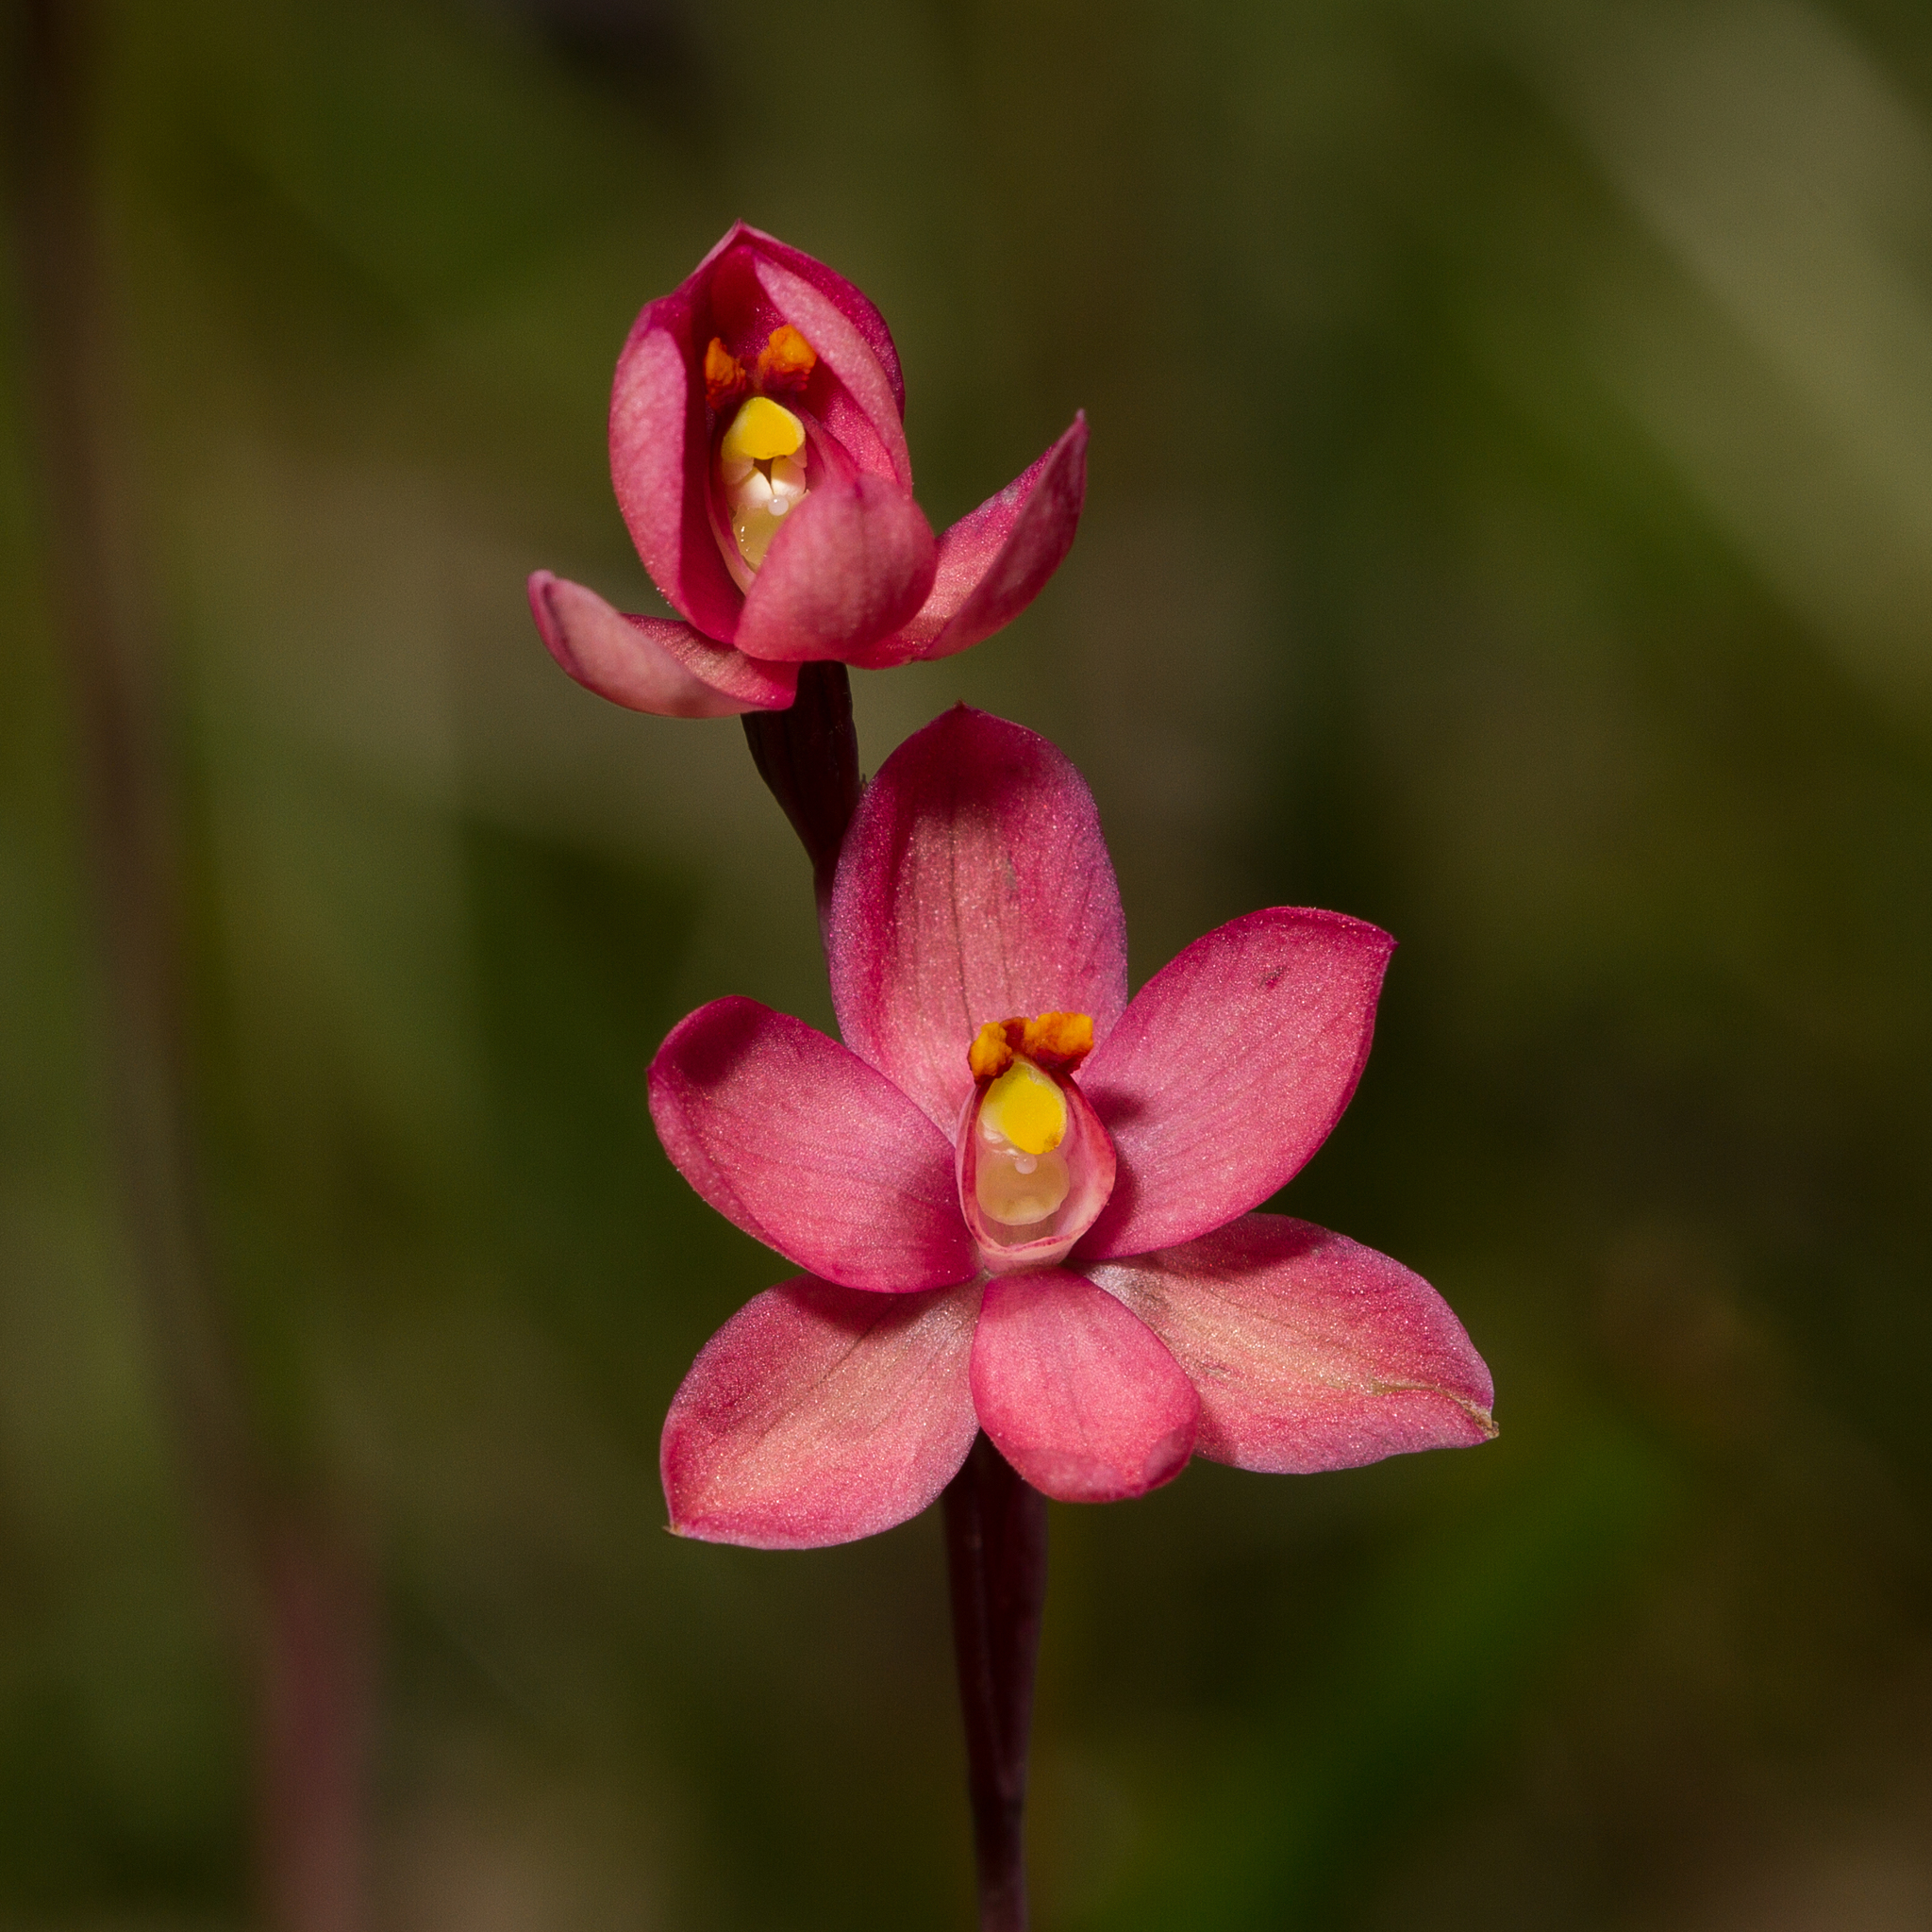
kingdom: Plantae
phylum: Tracheophyta
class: Liliopsida
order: Asparagales
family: Orchidaceae
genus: Thelymitra
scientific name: Thelymitra macmillanii
